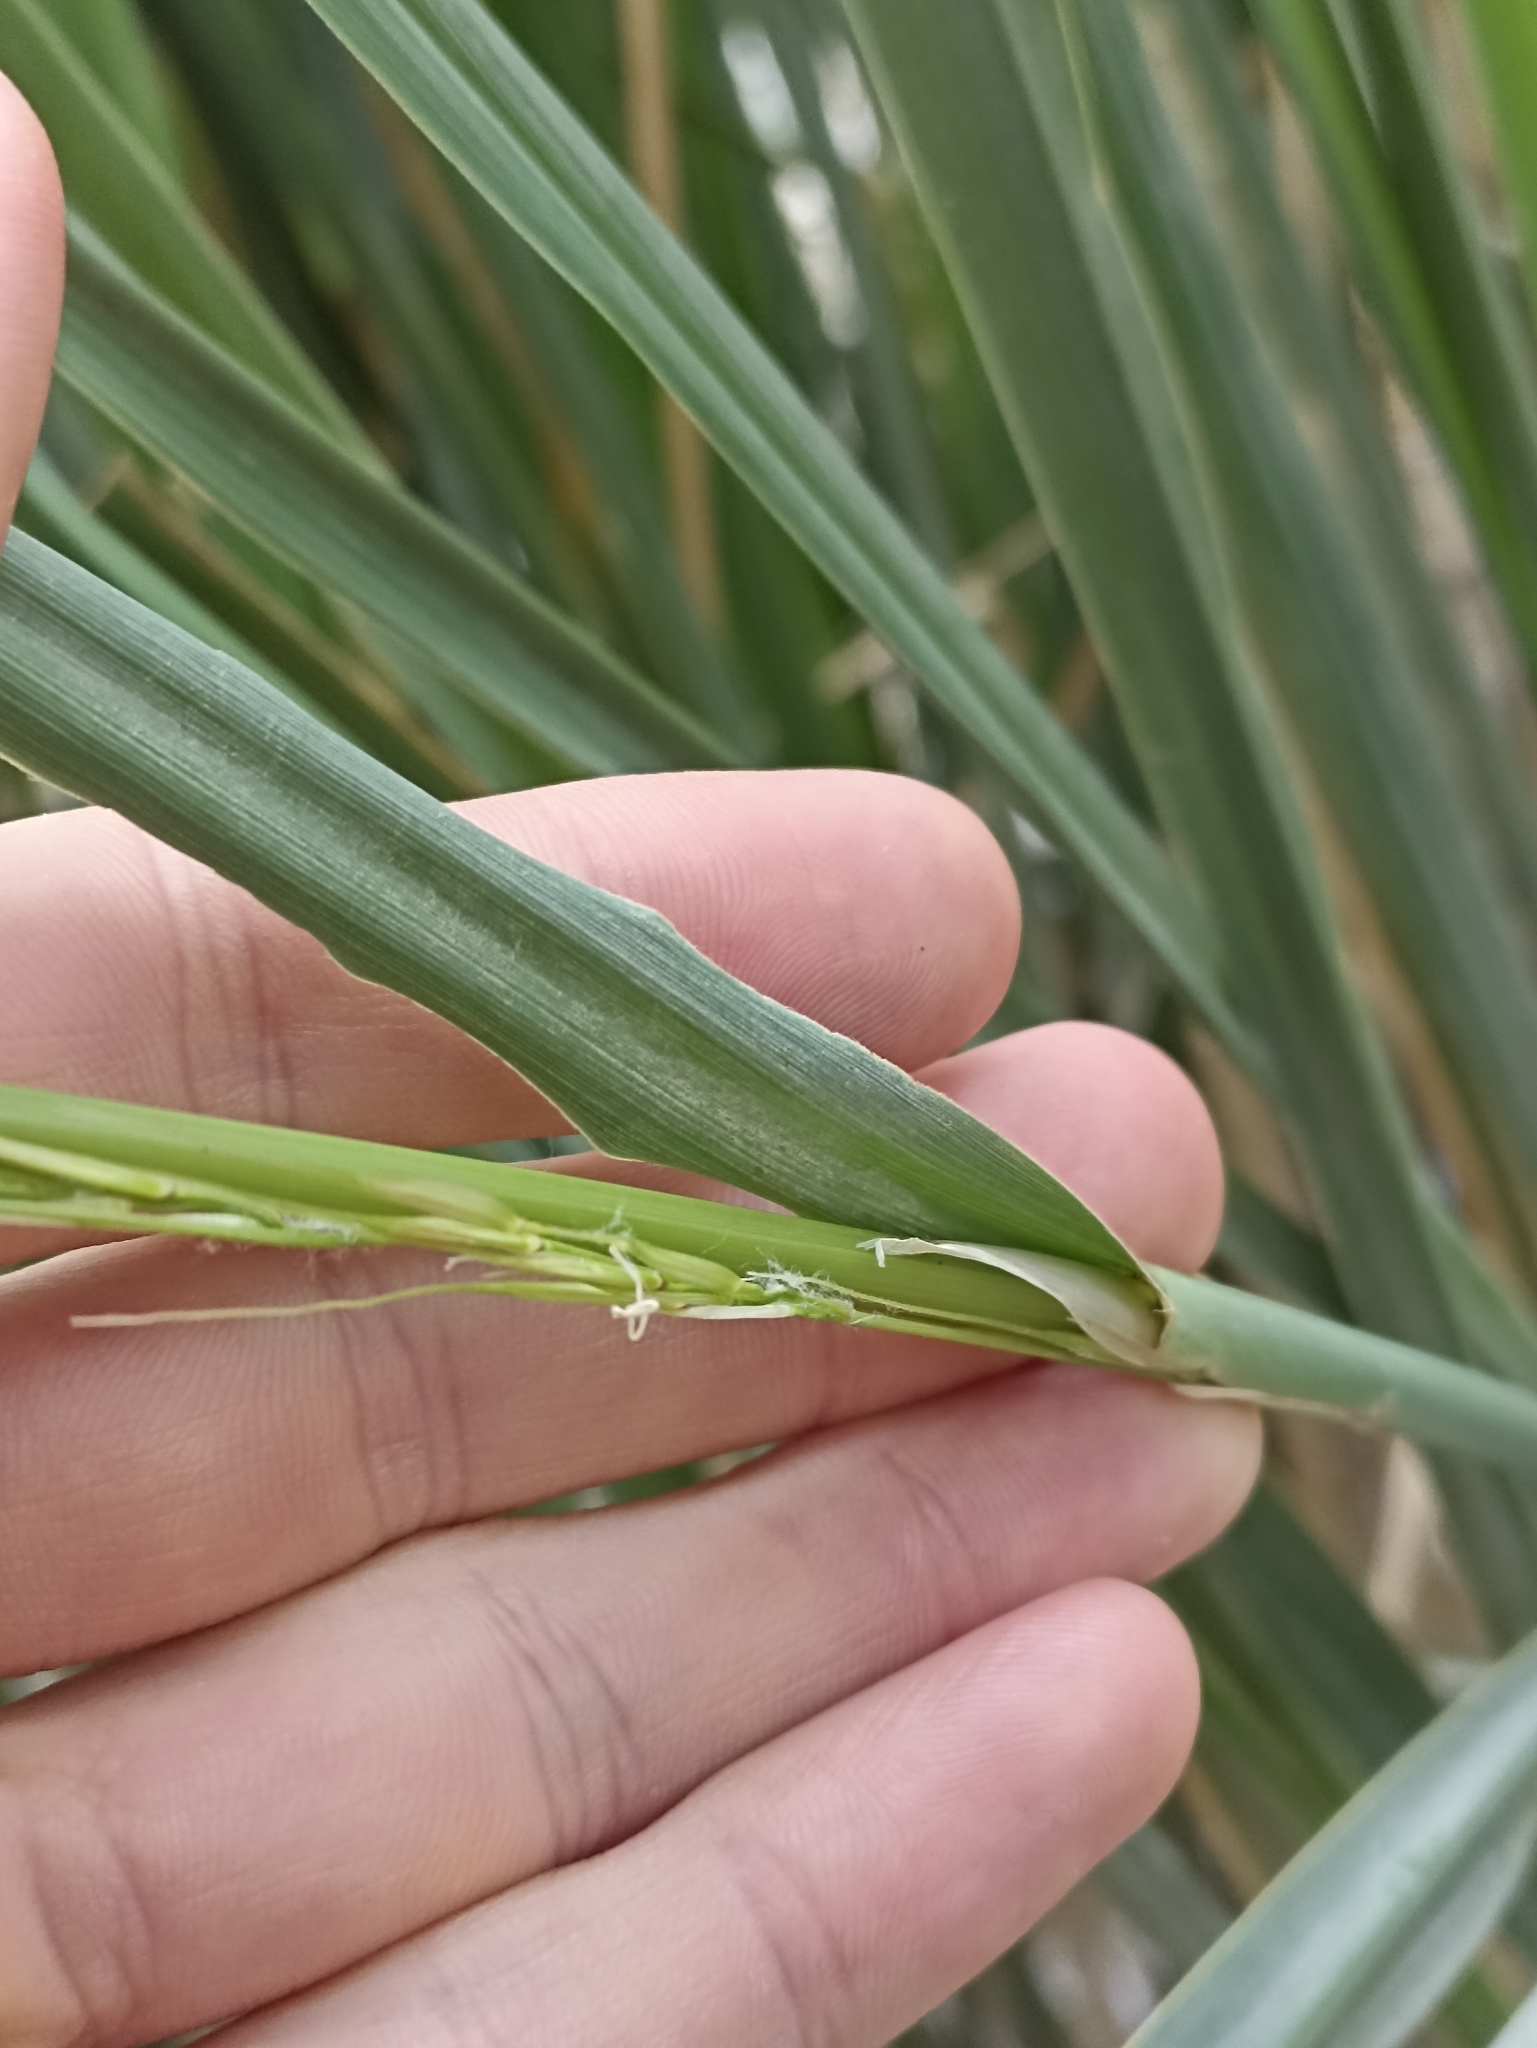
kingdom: Plantae
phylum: Tracheophyta
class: Liliopsida
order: Poales
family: Poaceae
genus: Zizania
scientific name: Zizania latifolia
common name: Manchurian wildrice
